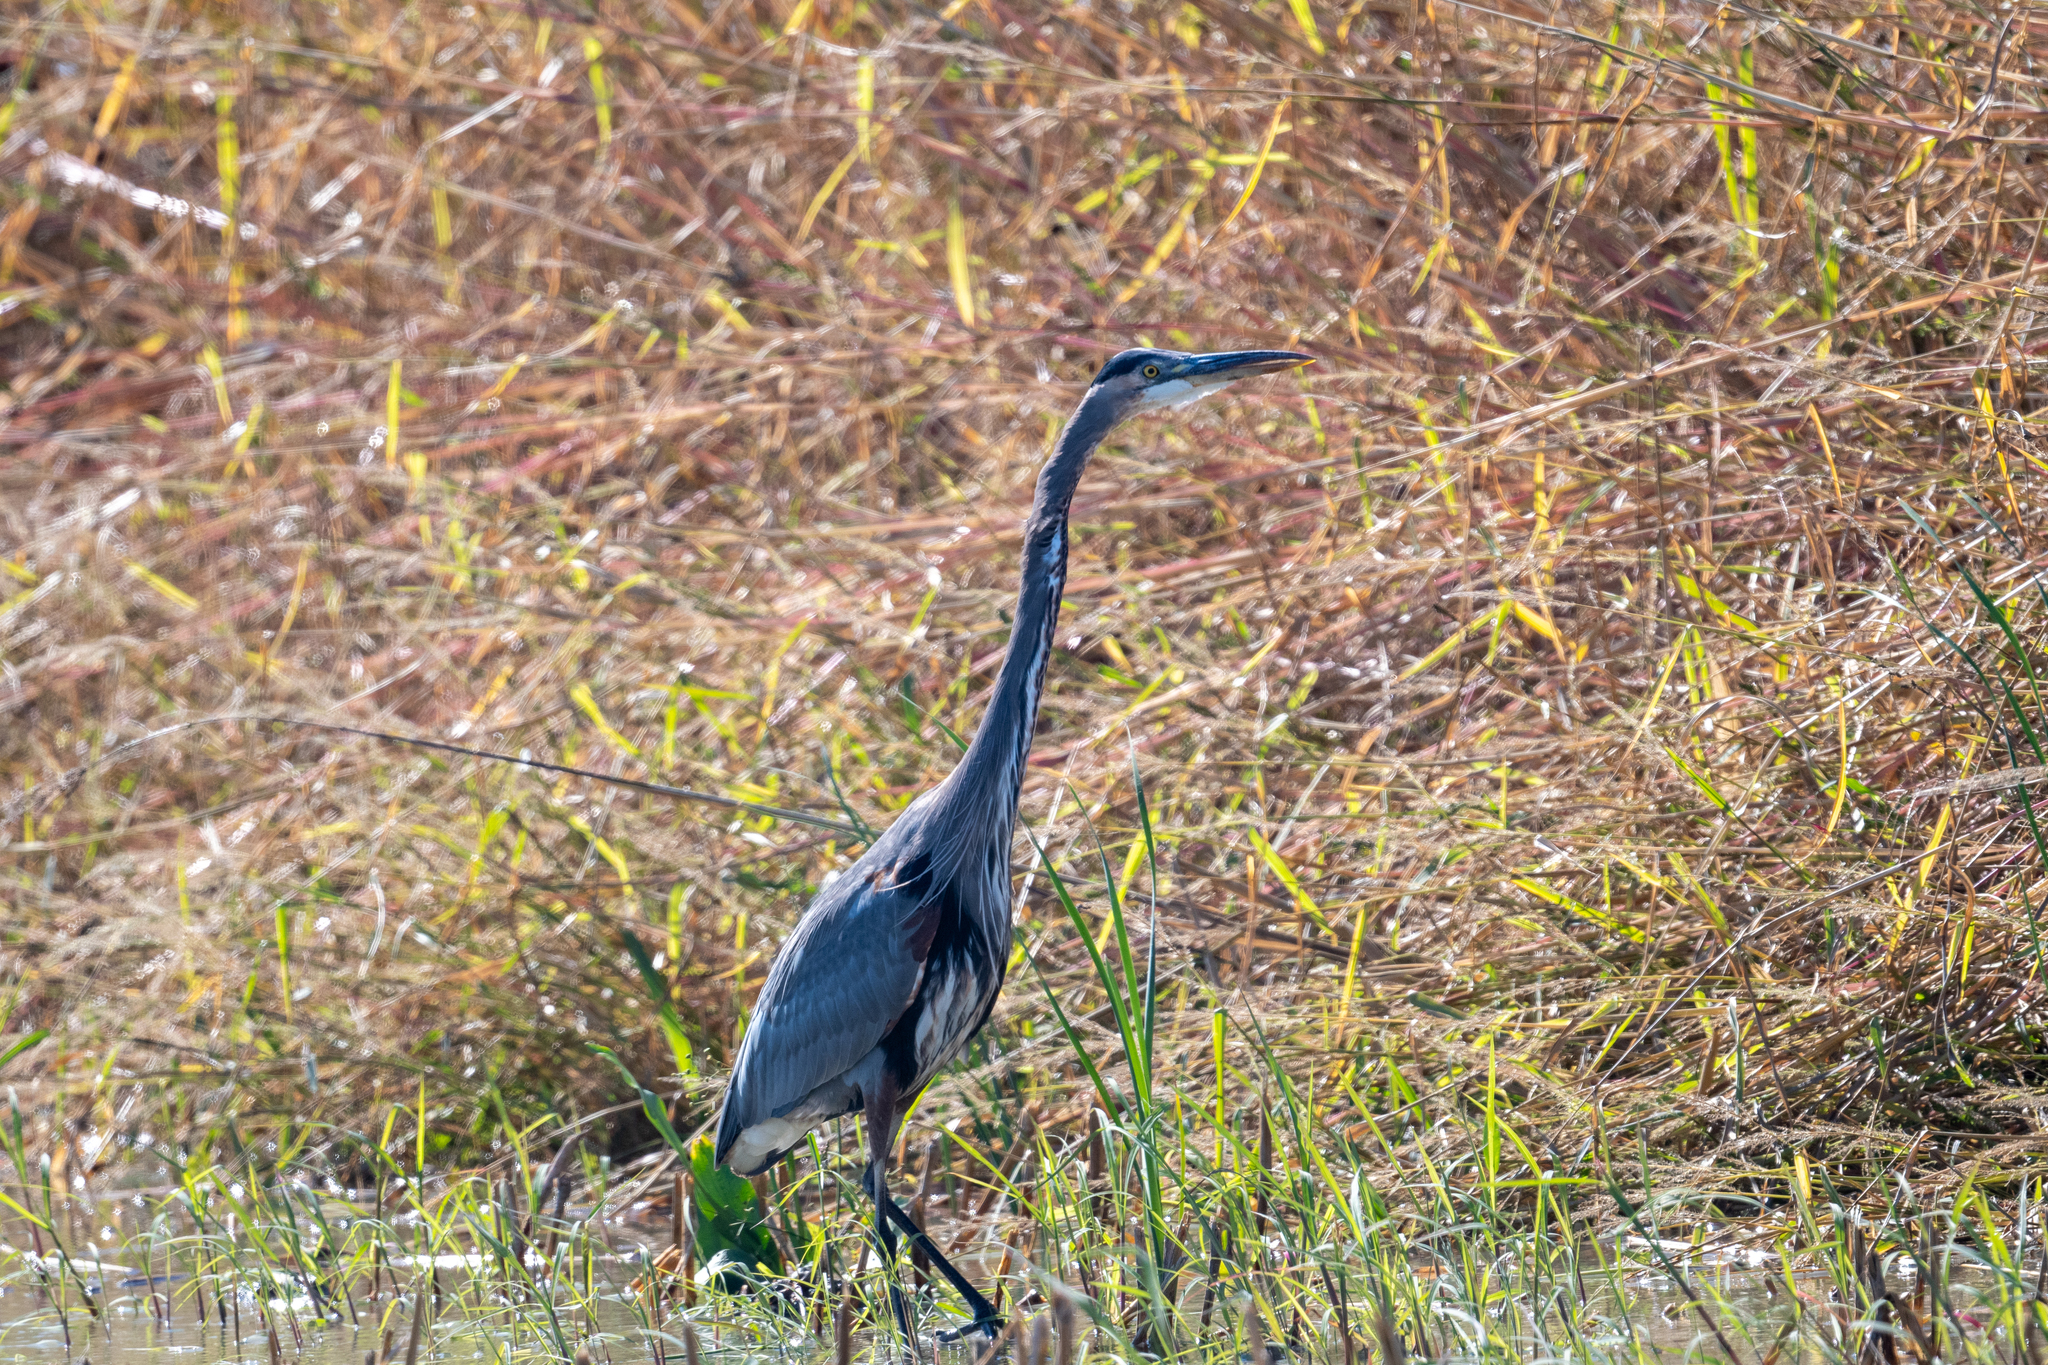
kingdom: Animalia
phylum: Chordata
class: Aves
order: Pelecaniformes
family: Ardeidae
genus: Ardea
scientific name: Ardea herodias
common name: Great blue heron
